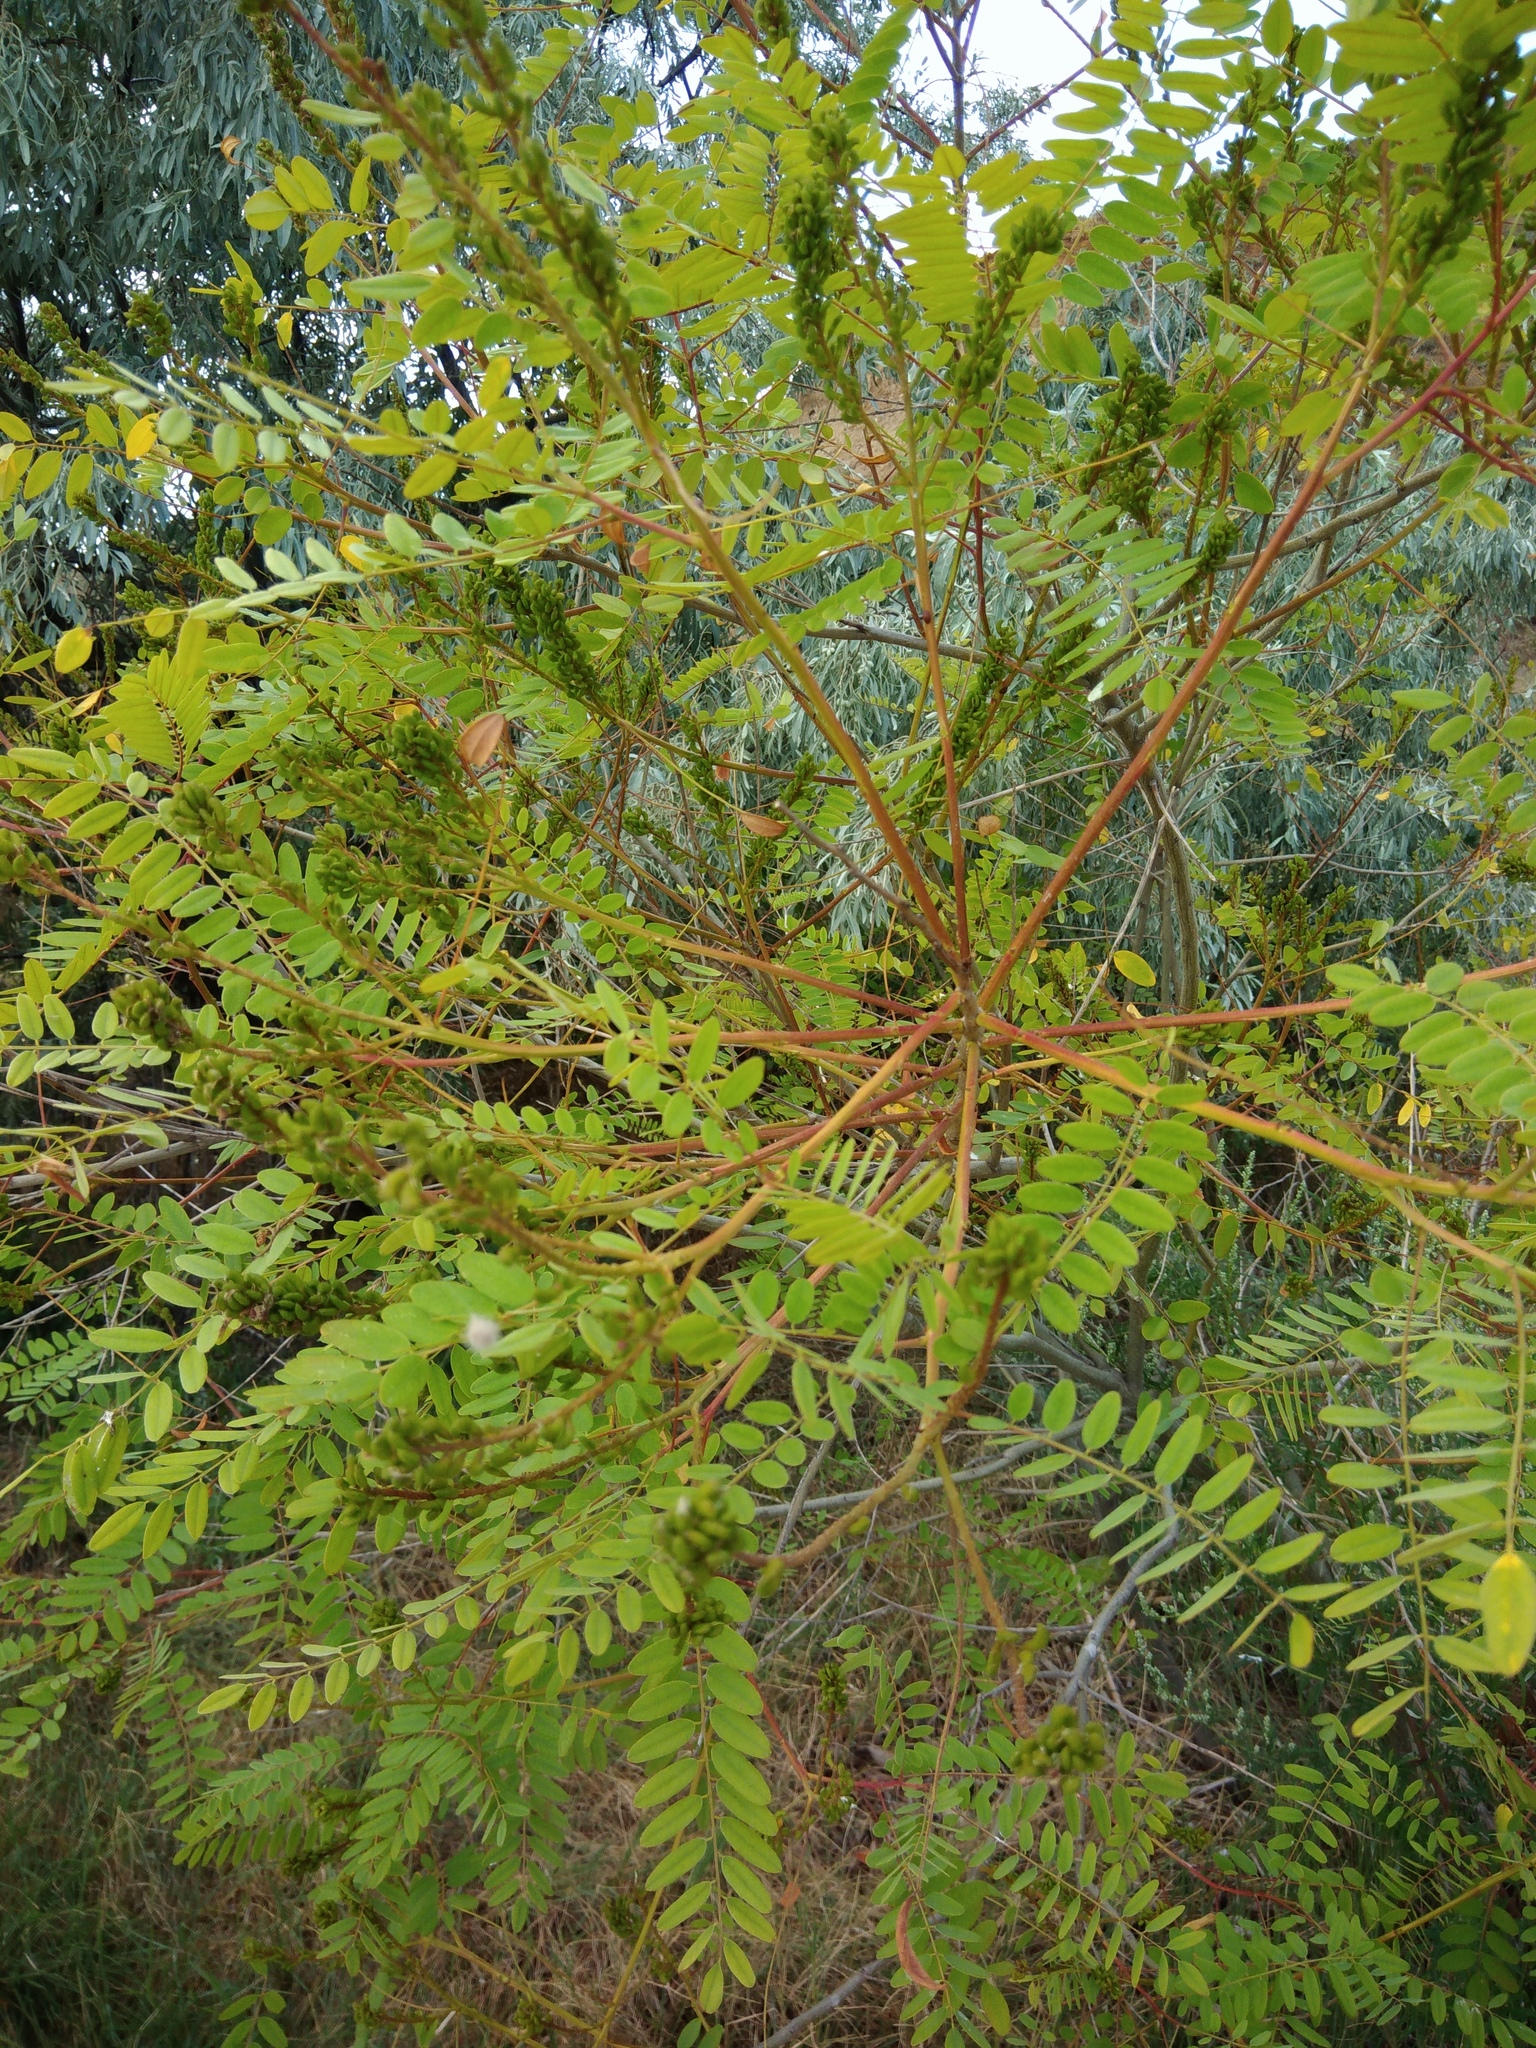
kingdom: Plantae
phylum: Tracheophyta
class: Magnoliopsida
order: Fabales
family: Fabaceae
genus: Amorpha
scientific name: Amorpha fruticosa
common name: False indigo
